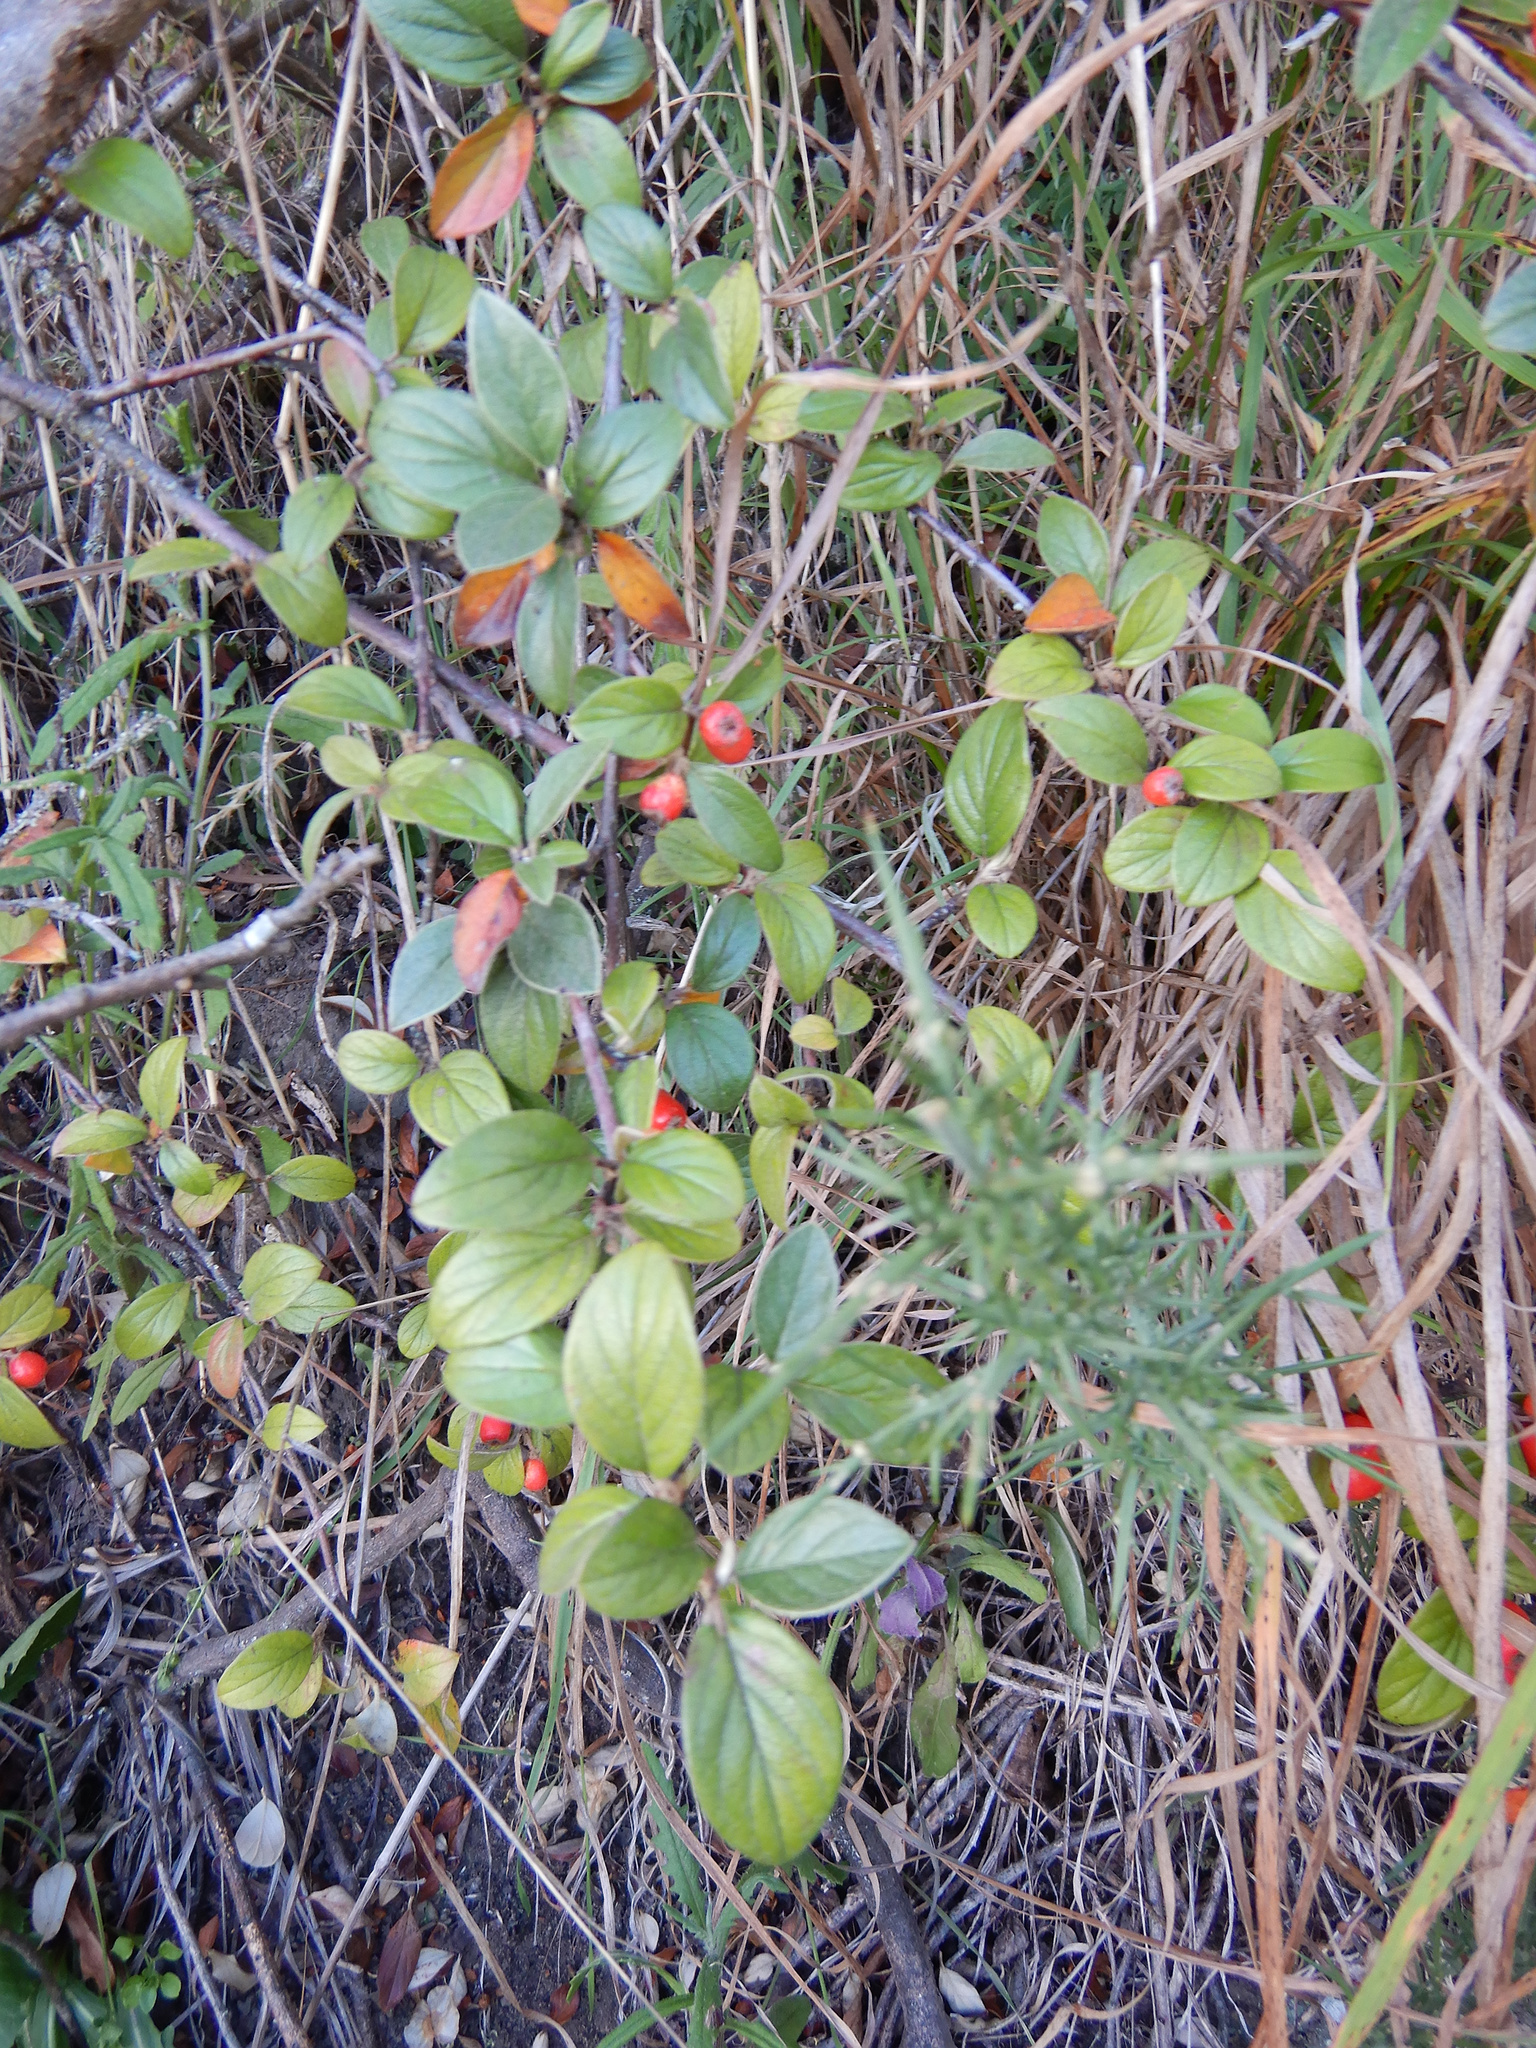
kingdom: Plantae
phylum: Tracheophyta
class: Magnoliopsida
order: Rosales
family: Rosaceae
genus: Cotoneaster
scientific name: Cotoneaster franchetii
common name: Franchet's cotoneaster
